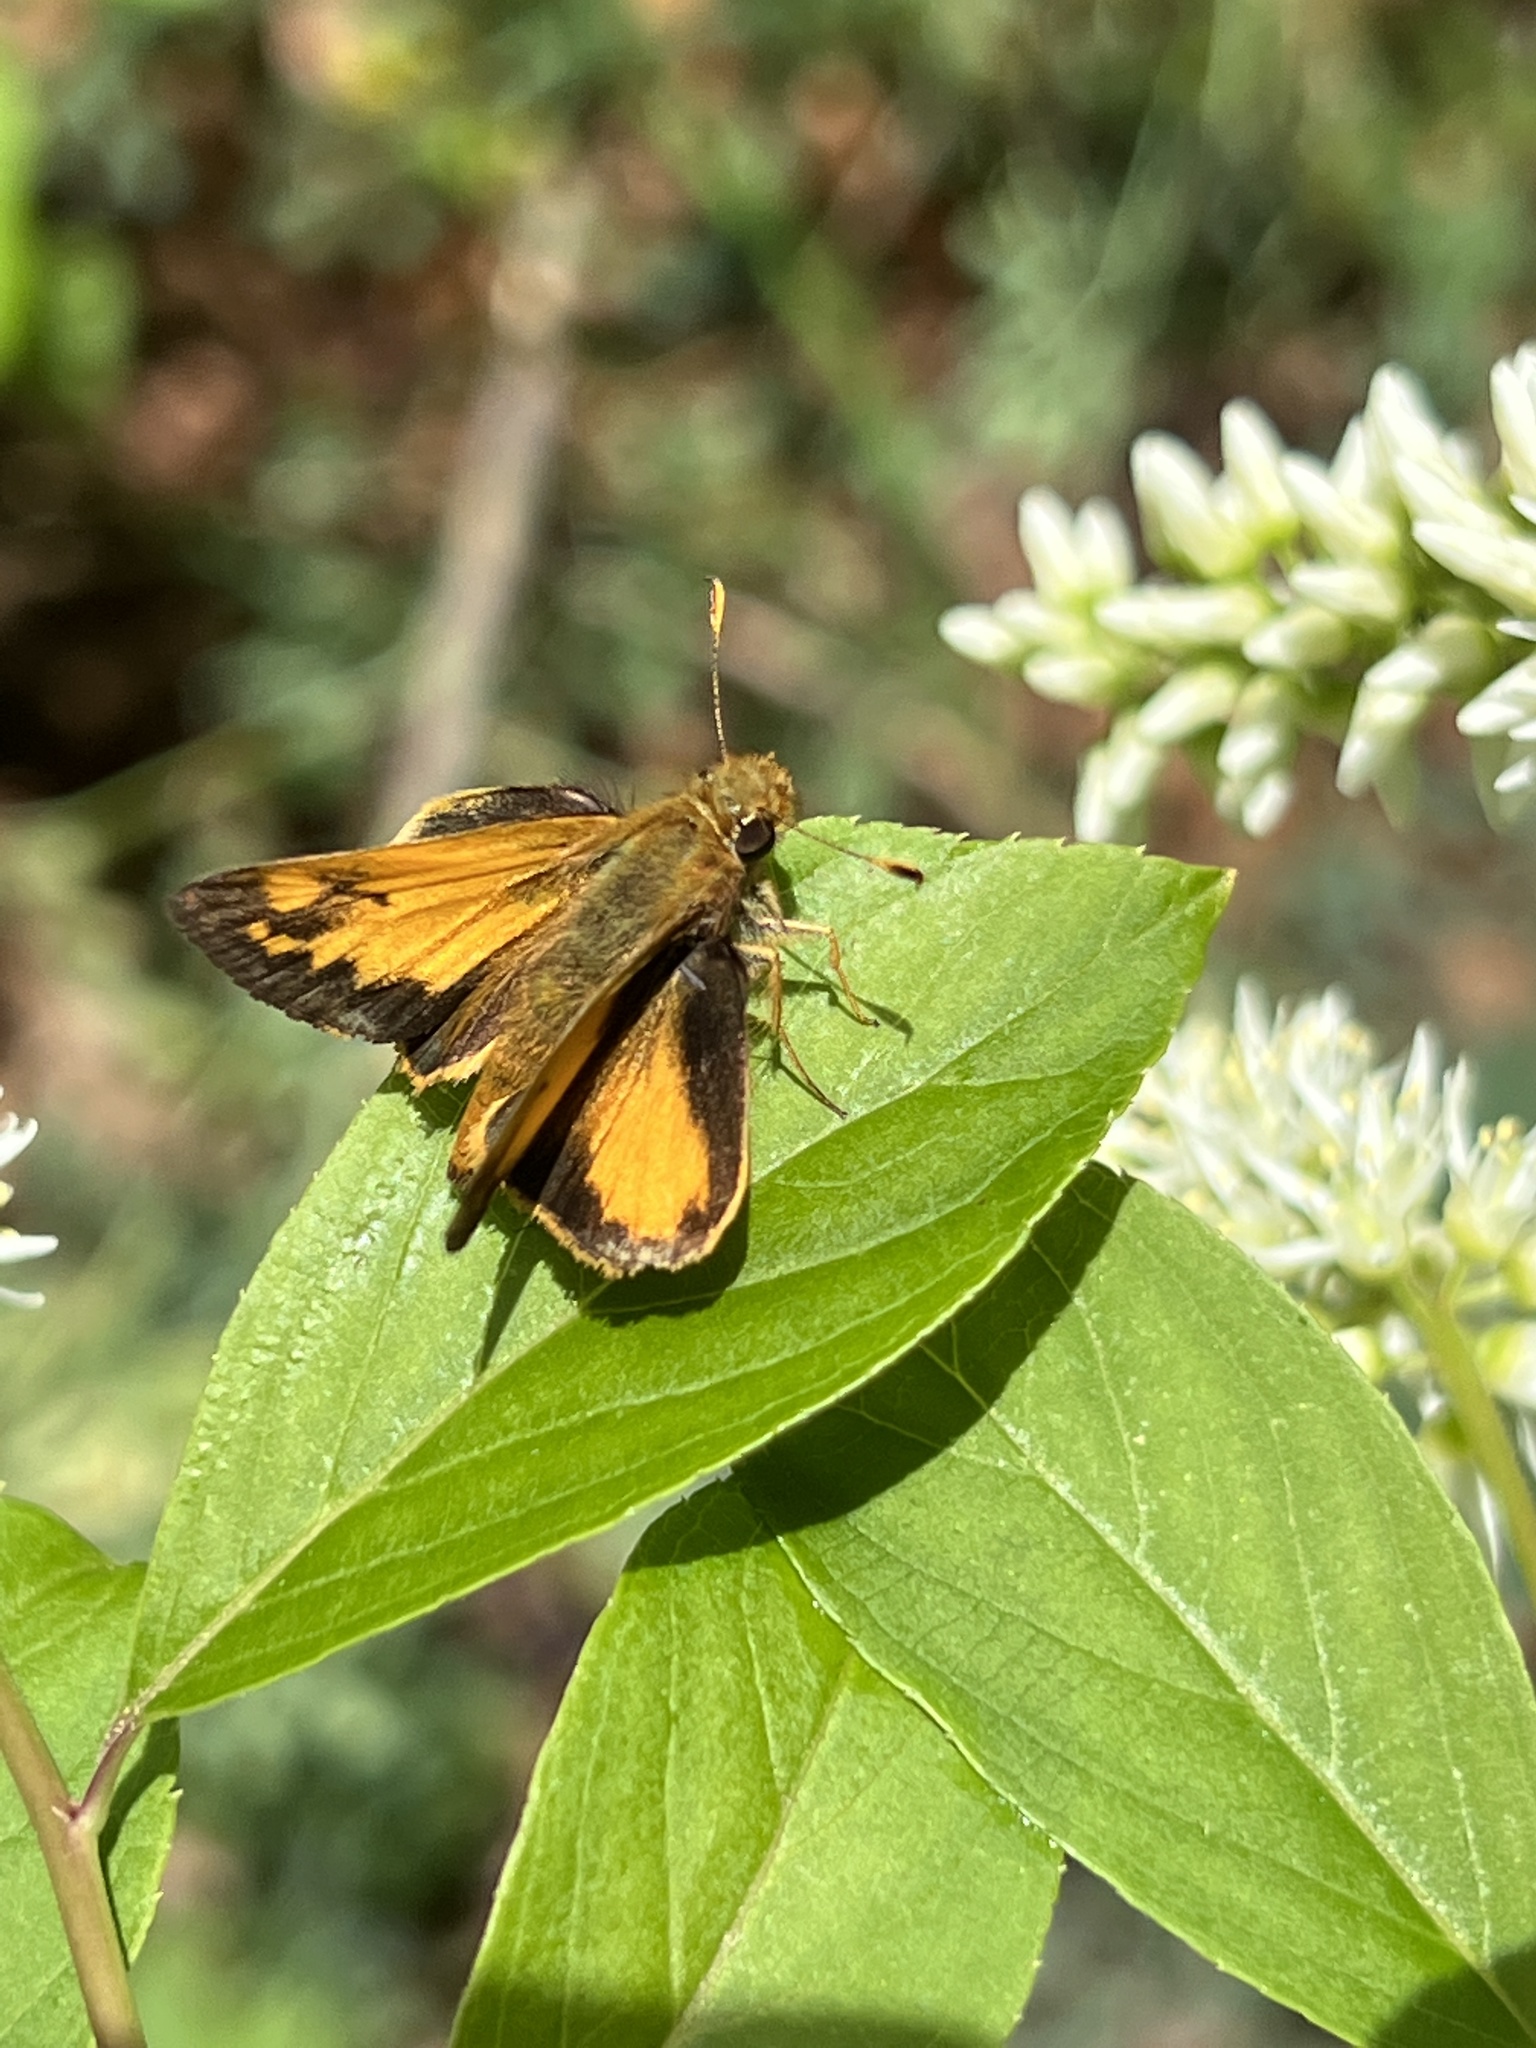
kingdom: Animalia
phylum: Arthropoda
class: Insecta
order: Lepidoptera
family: Hesperiidae
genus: Lon
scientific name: Lon zabulon
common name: Zabulon skipper
